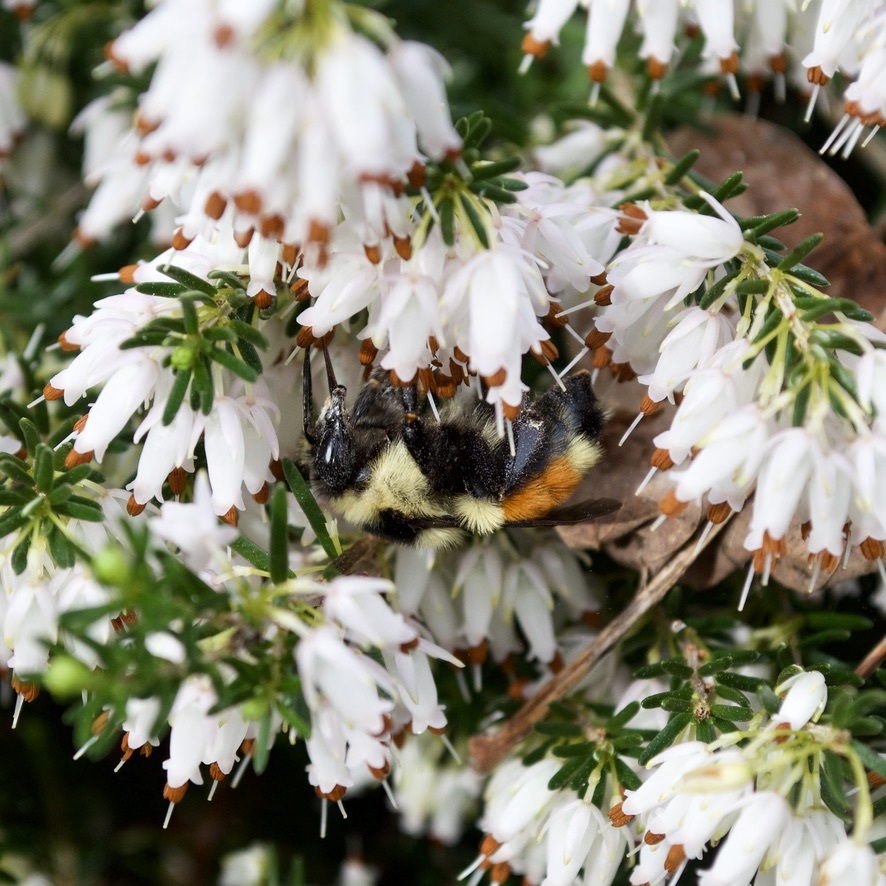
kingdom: Animalia
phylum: Arthropoda
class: Insecta
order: Hymenoptera
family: Apidae
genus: Bombus
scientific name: Bombus ternarius
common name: Tri-colored bumble bee
